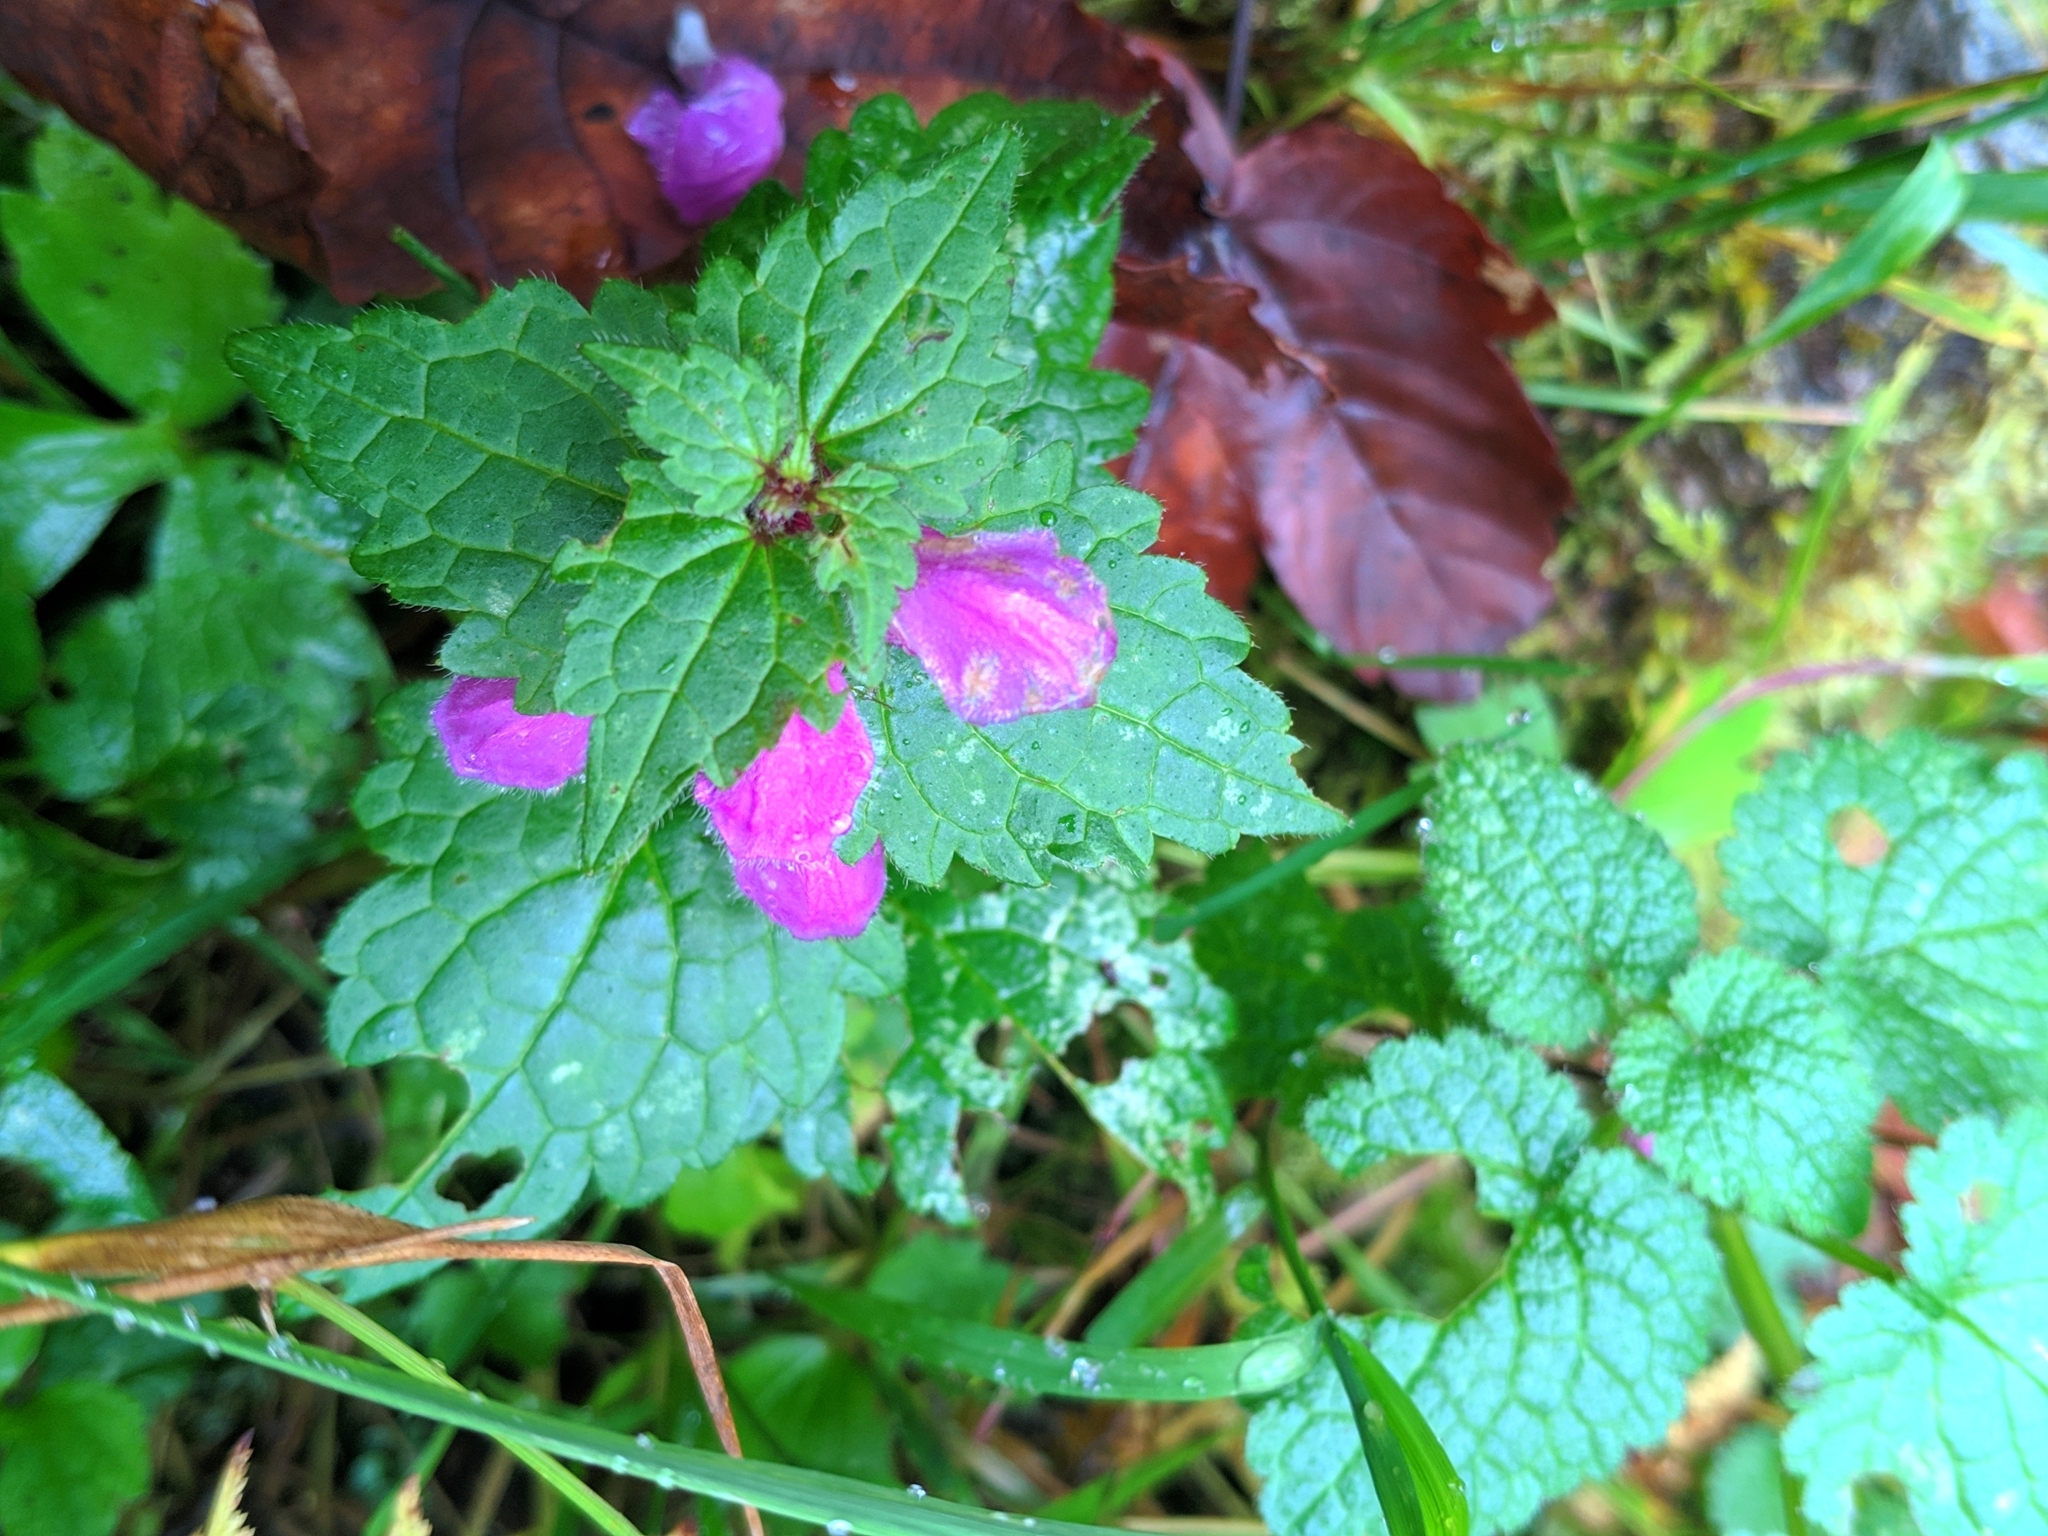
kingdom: Plantae
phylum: Tracheophyta
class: Magnoliopsida
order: Lamiales
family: Lamiaceae
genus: Lamium
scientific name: Lamium maculatum
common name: Spotted dead-nettle
